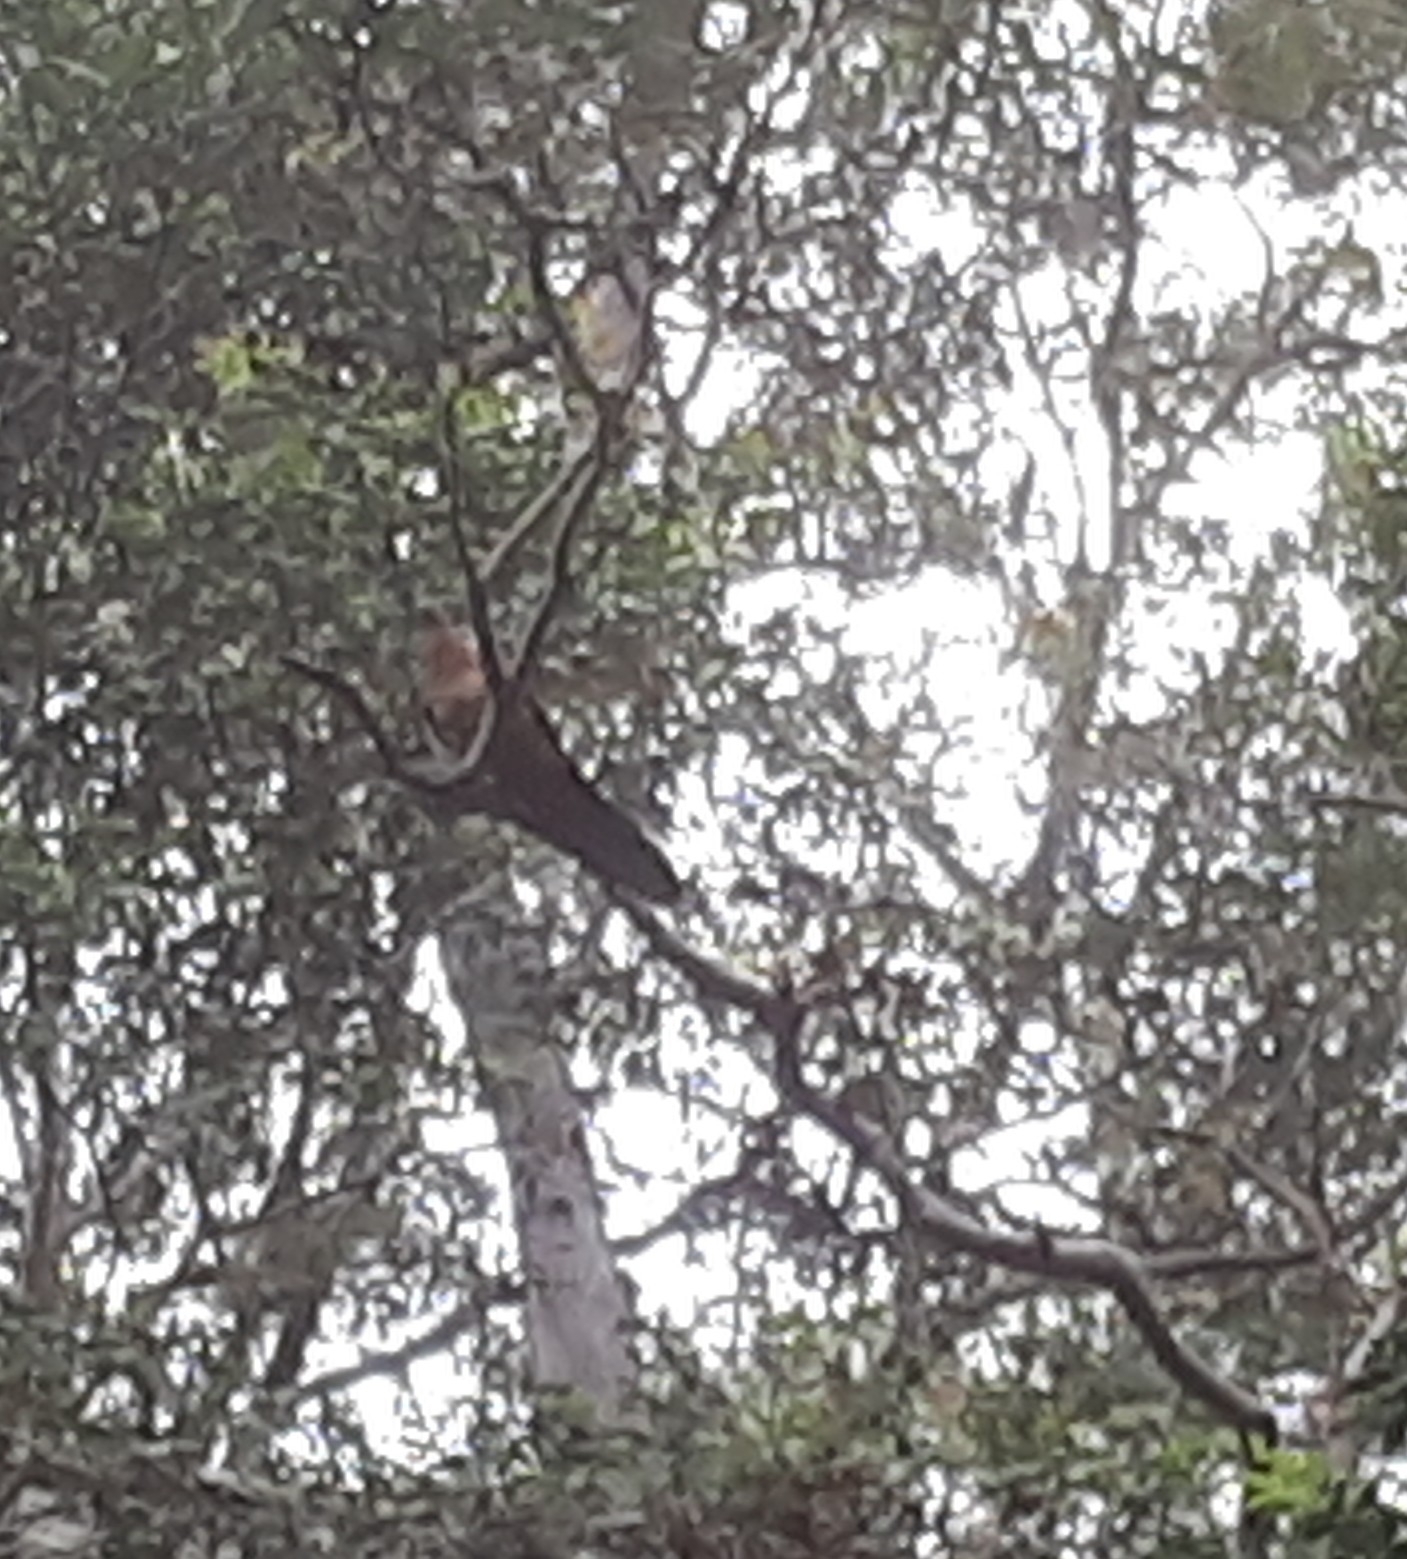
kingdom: Animalia
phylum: Chordata
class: Aves
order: Columbiformes
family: Columbidae
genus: Macropygia
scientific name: Macropygia phasianella
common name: Brown cuckoo-dove
